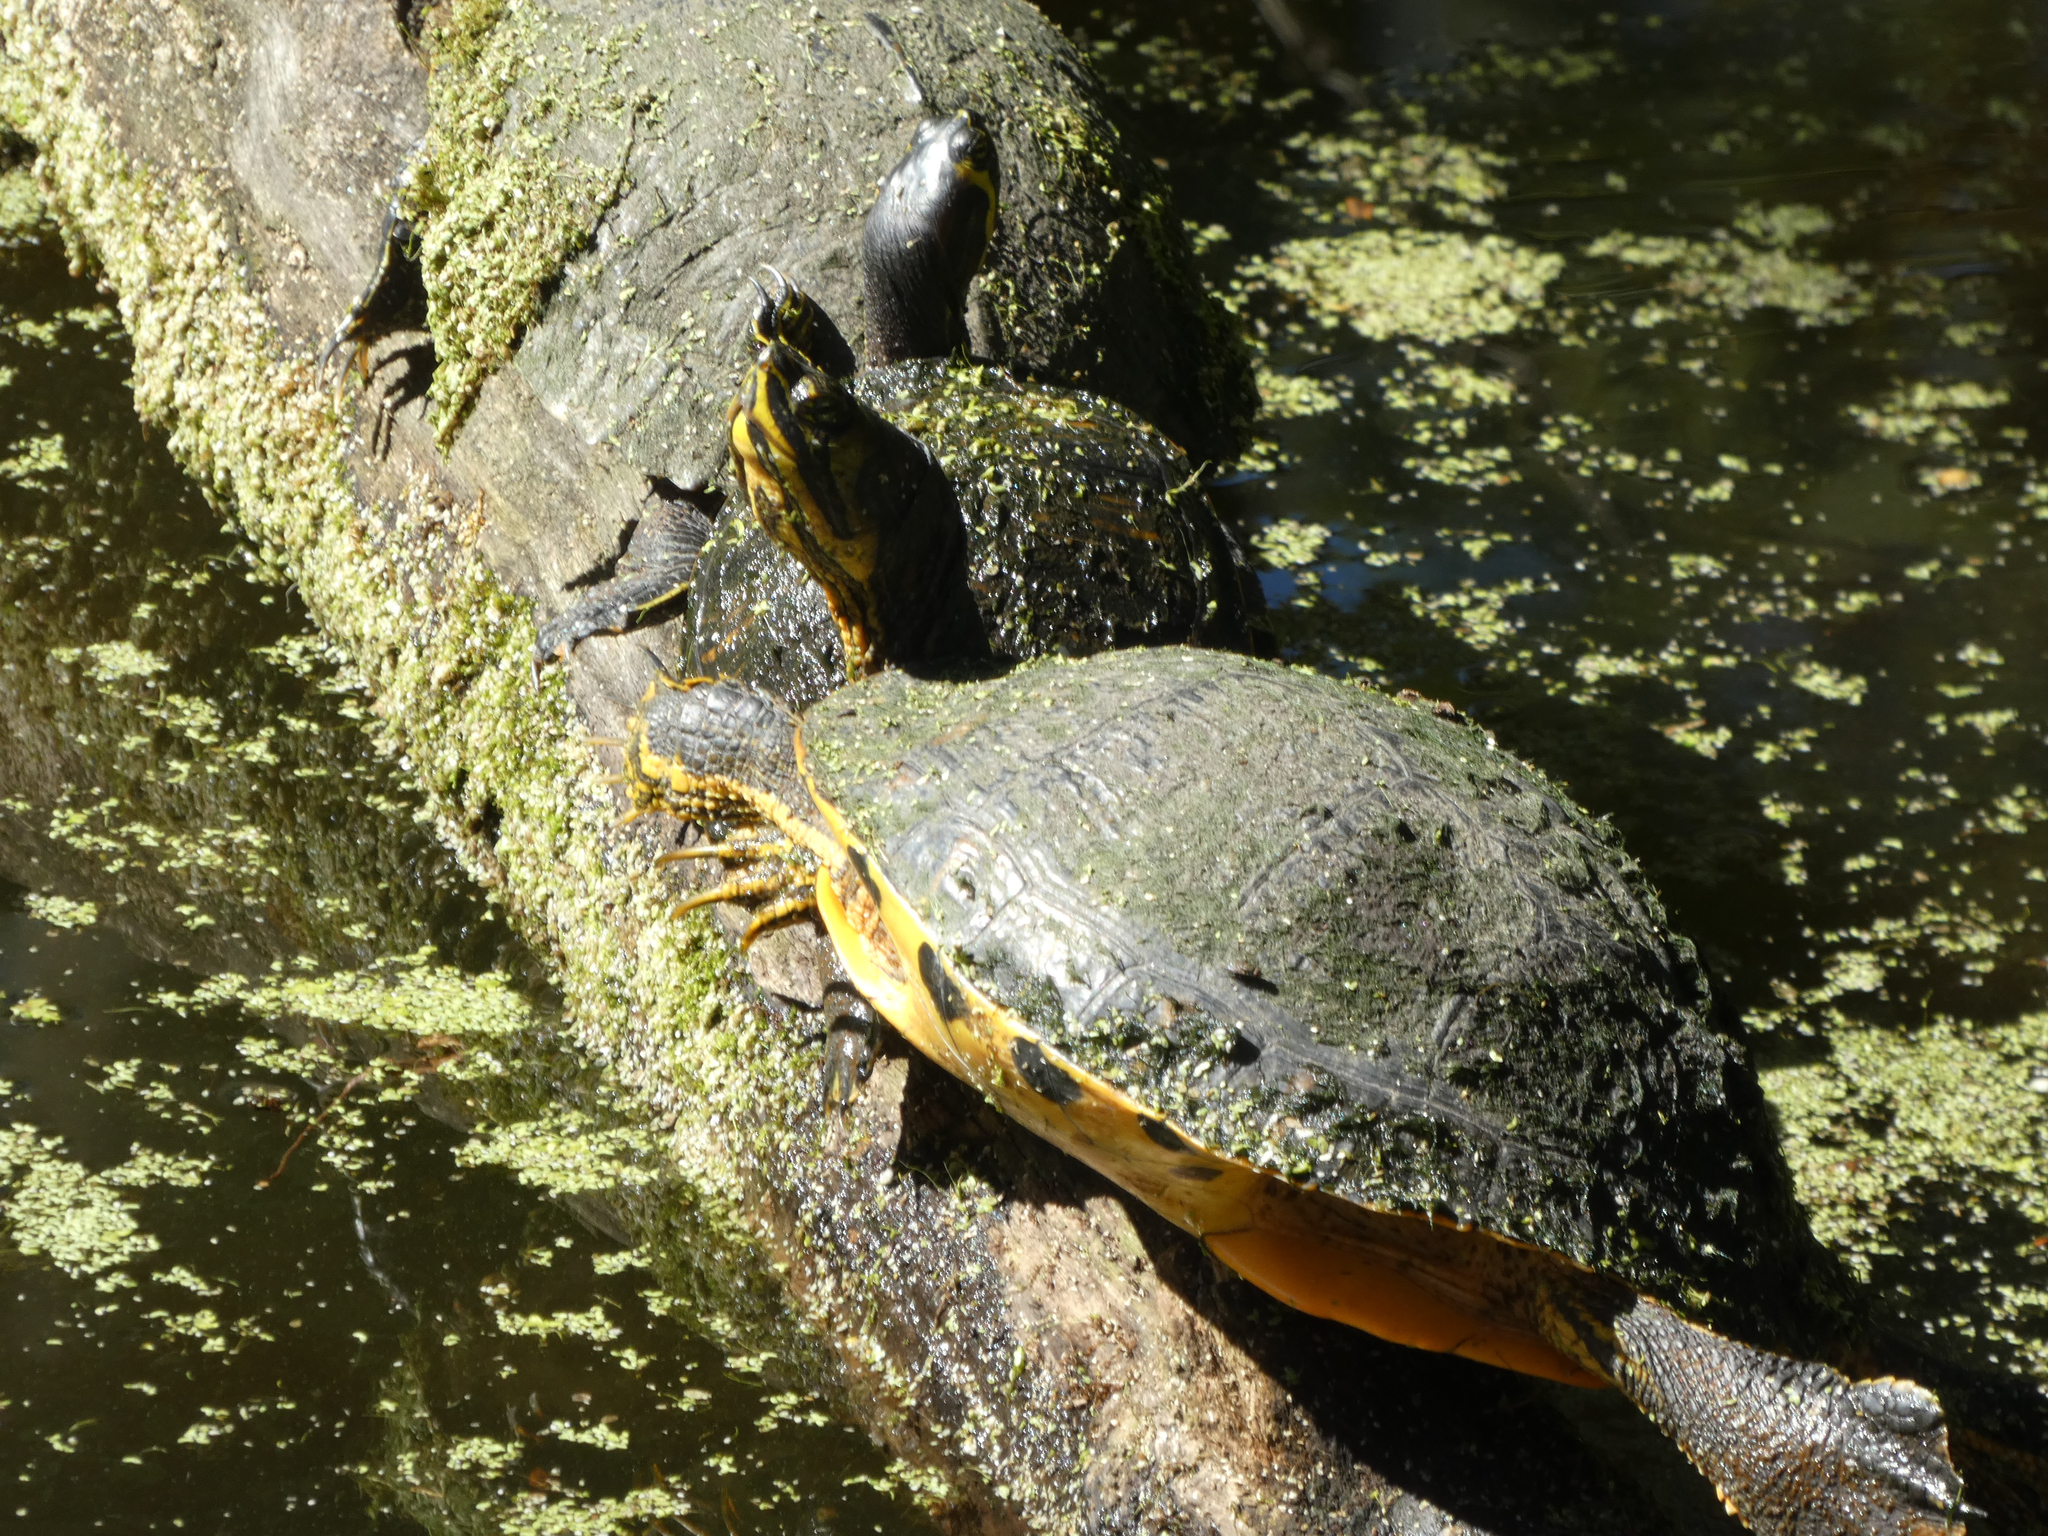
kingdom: Animalia
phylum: Chordata
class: Testudines
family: Emydidae
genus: Trachemys
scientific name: Trachemys scripta
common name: Slider
